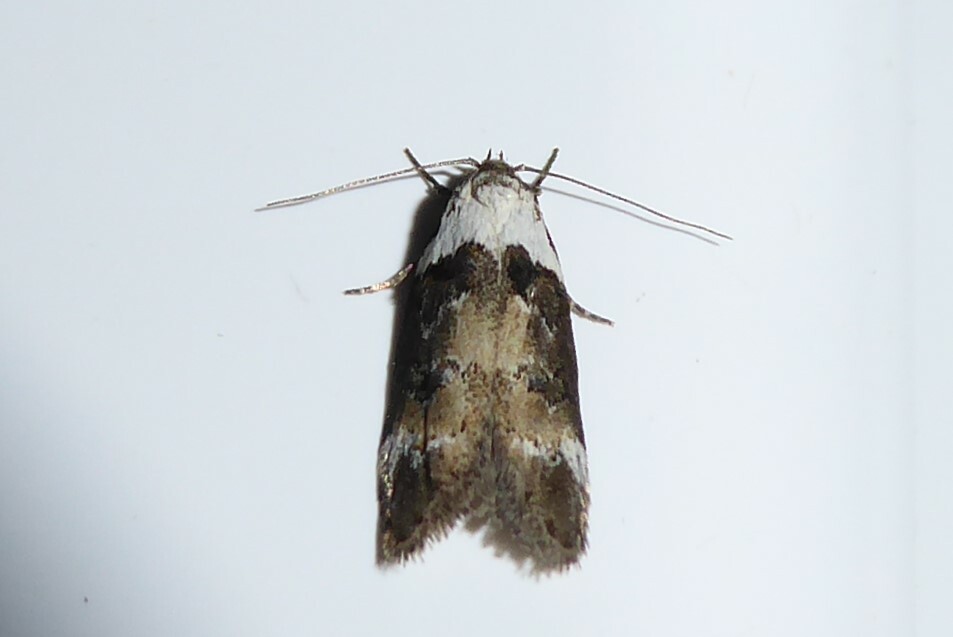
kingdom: Animalia
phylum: Arthropoda
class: Insecta
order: Lepidoptera
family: Oecophoridae
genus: Trachypepla
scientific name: Trachypepla conspicuella
